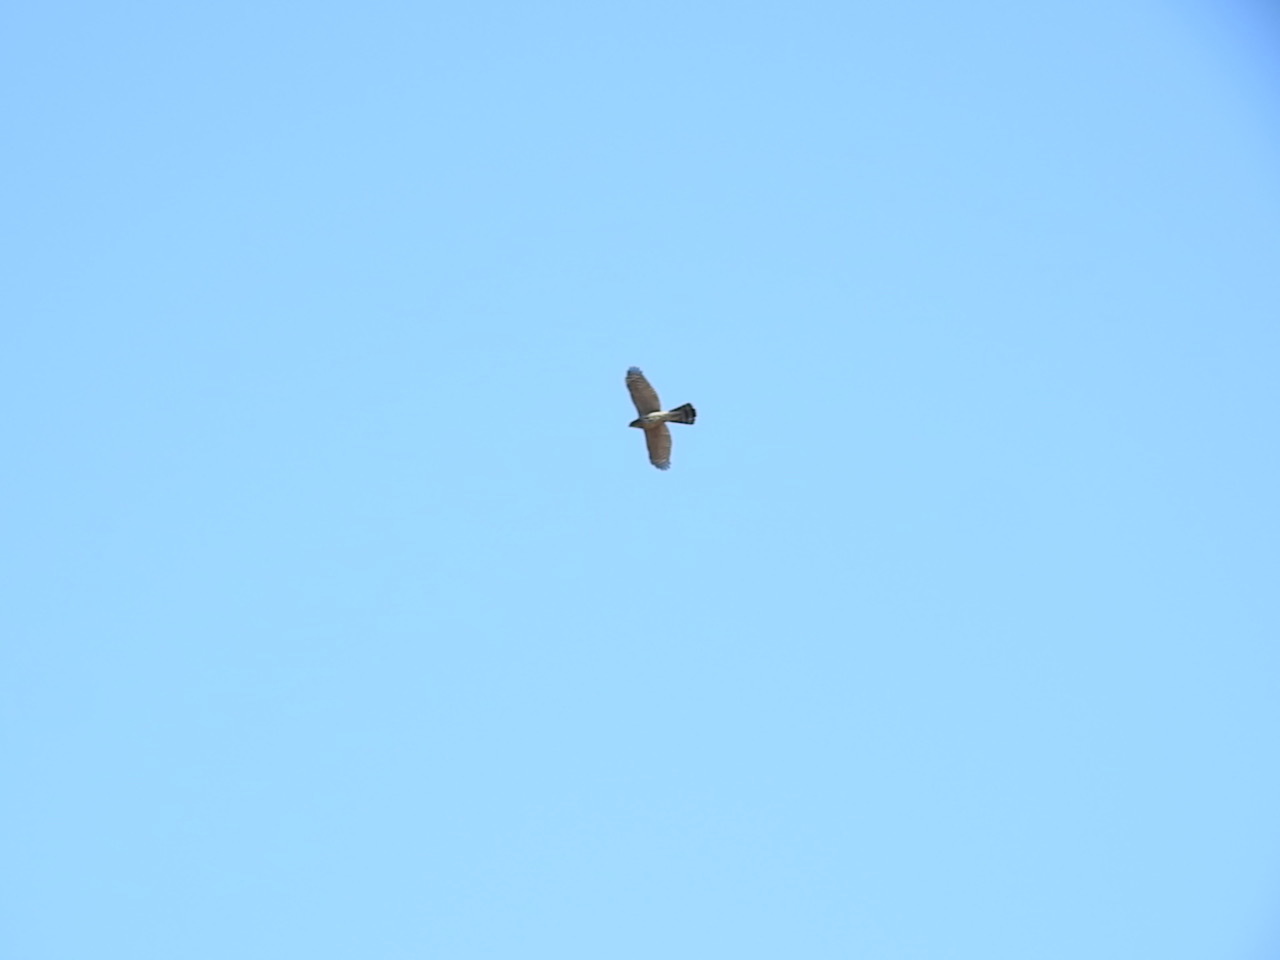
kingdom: Animalia
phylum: Chordata
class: Aves
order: Accipitriformes
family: Accipitridae
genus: Accipiter
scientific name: Accipiter cooperii
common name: Cooper's hawk
